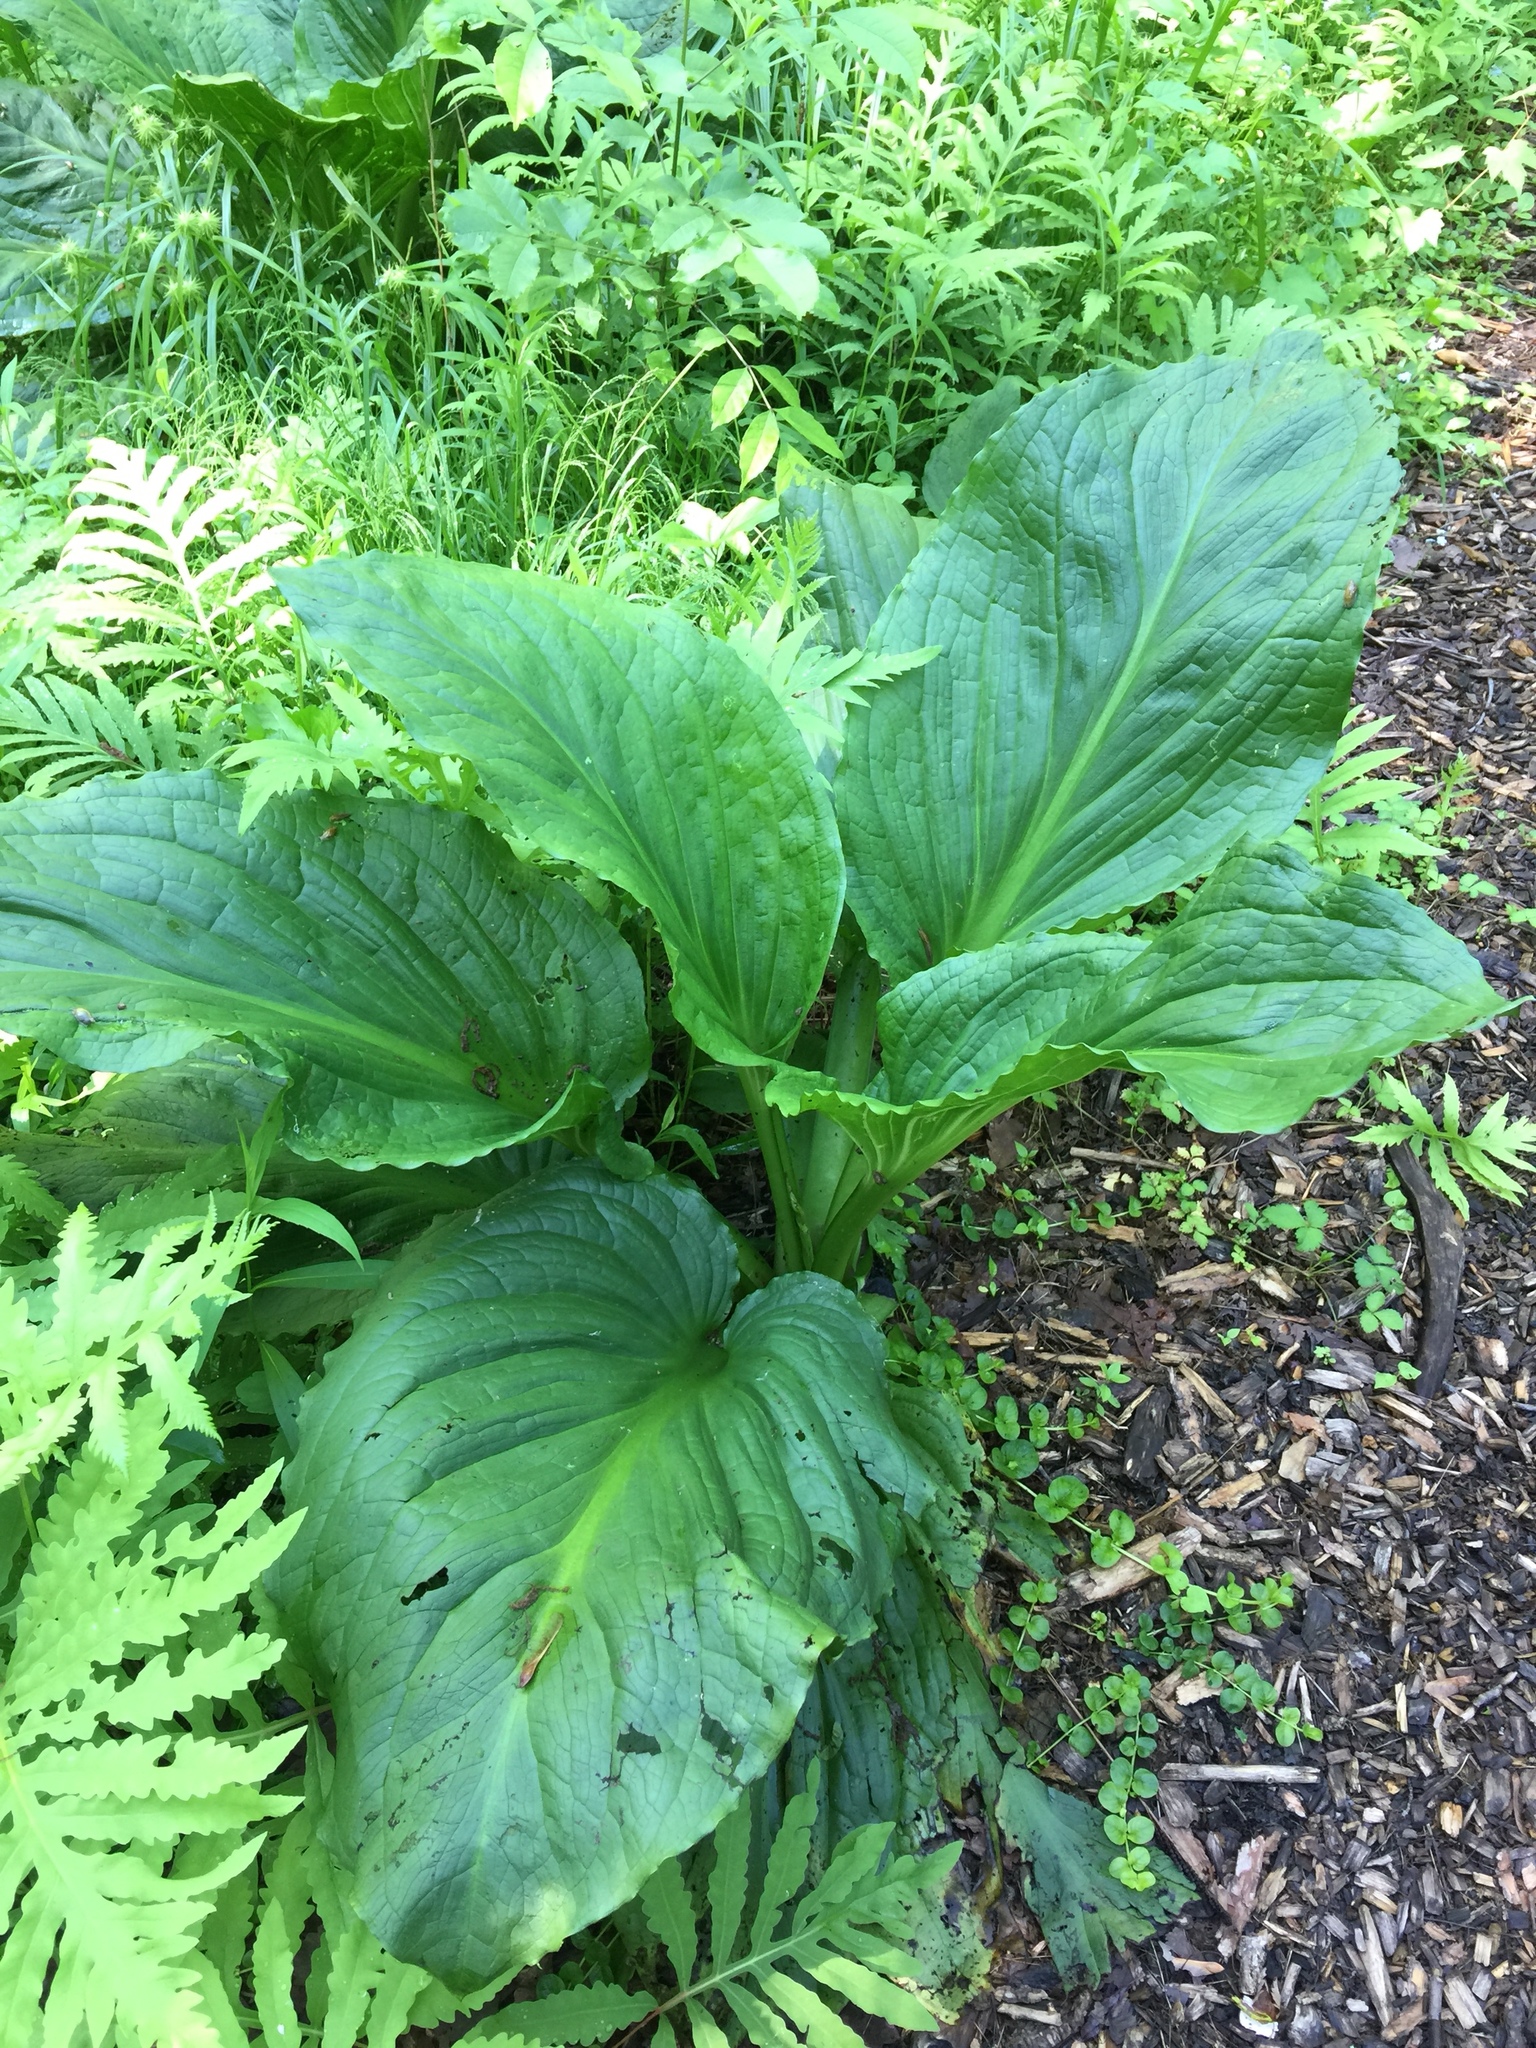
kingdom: Plantae
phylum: Tracheophyta
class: Liliopsida
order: Alismatales
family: Araceae
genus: Symplocarpus
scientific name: Symplocarpus foetidus
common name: Eastern skunk cabbage
